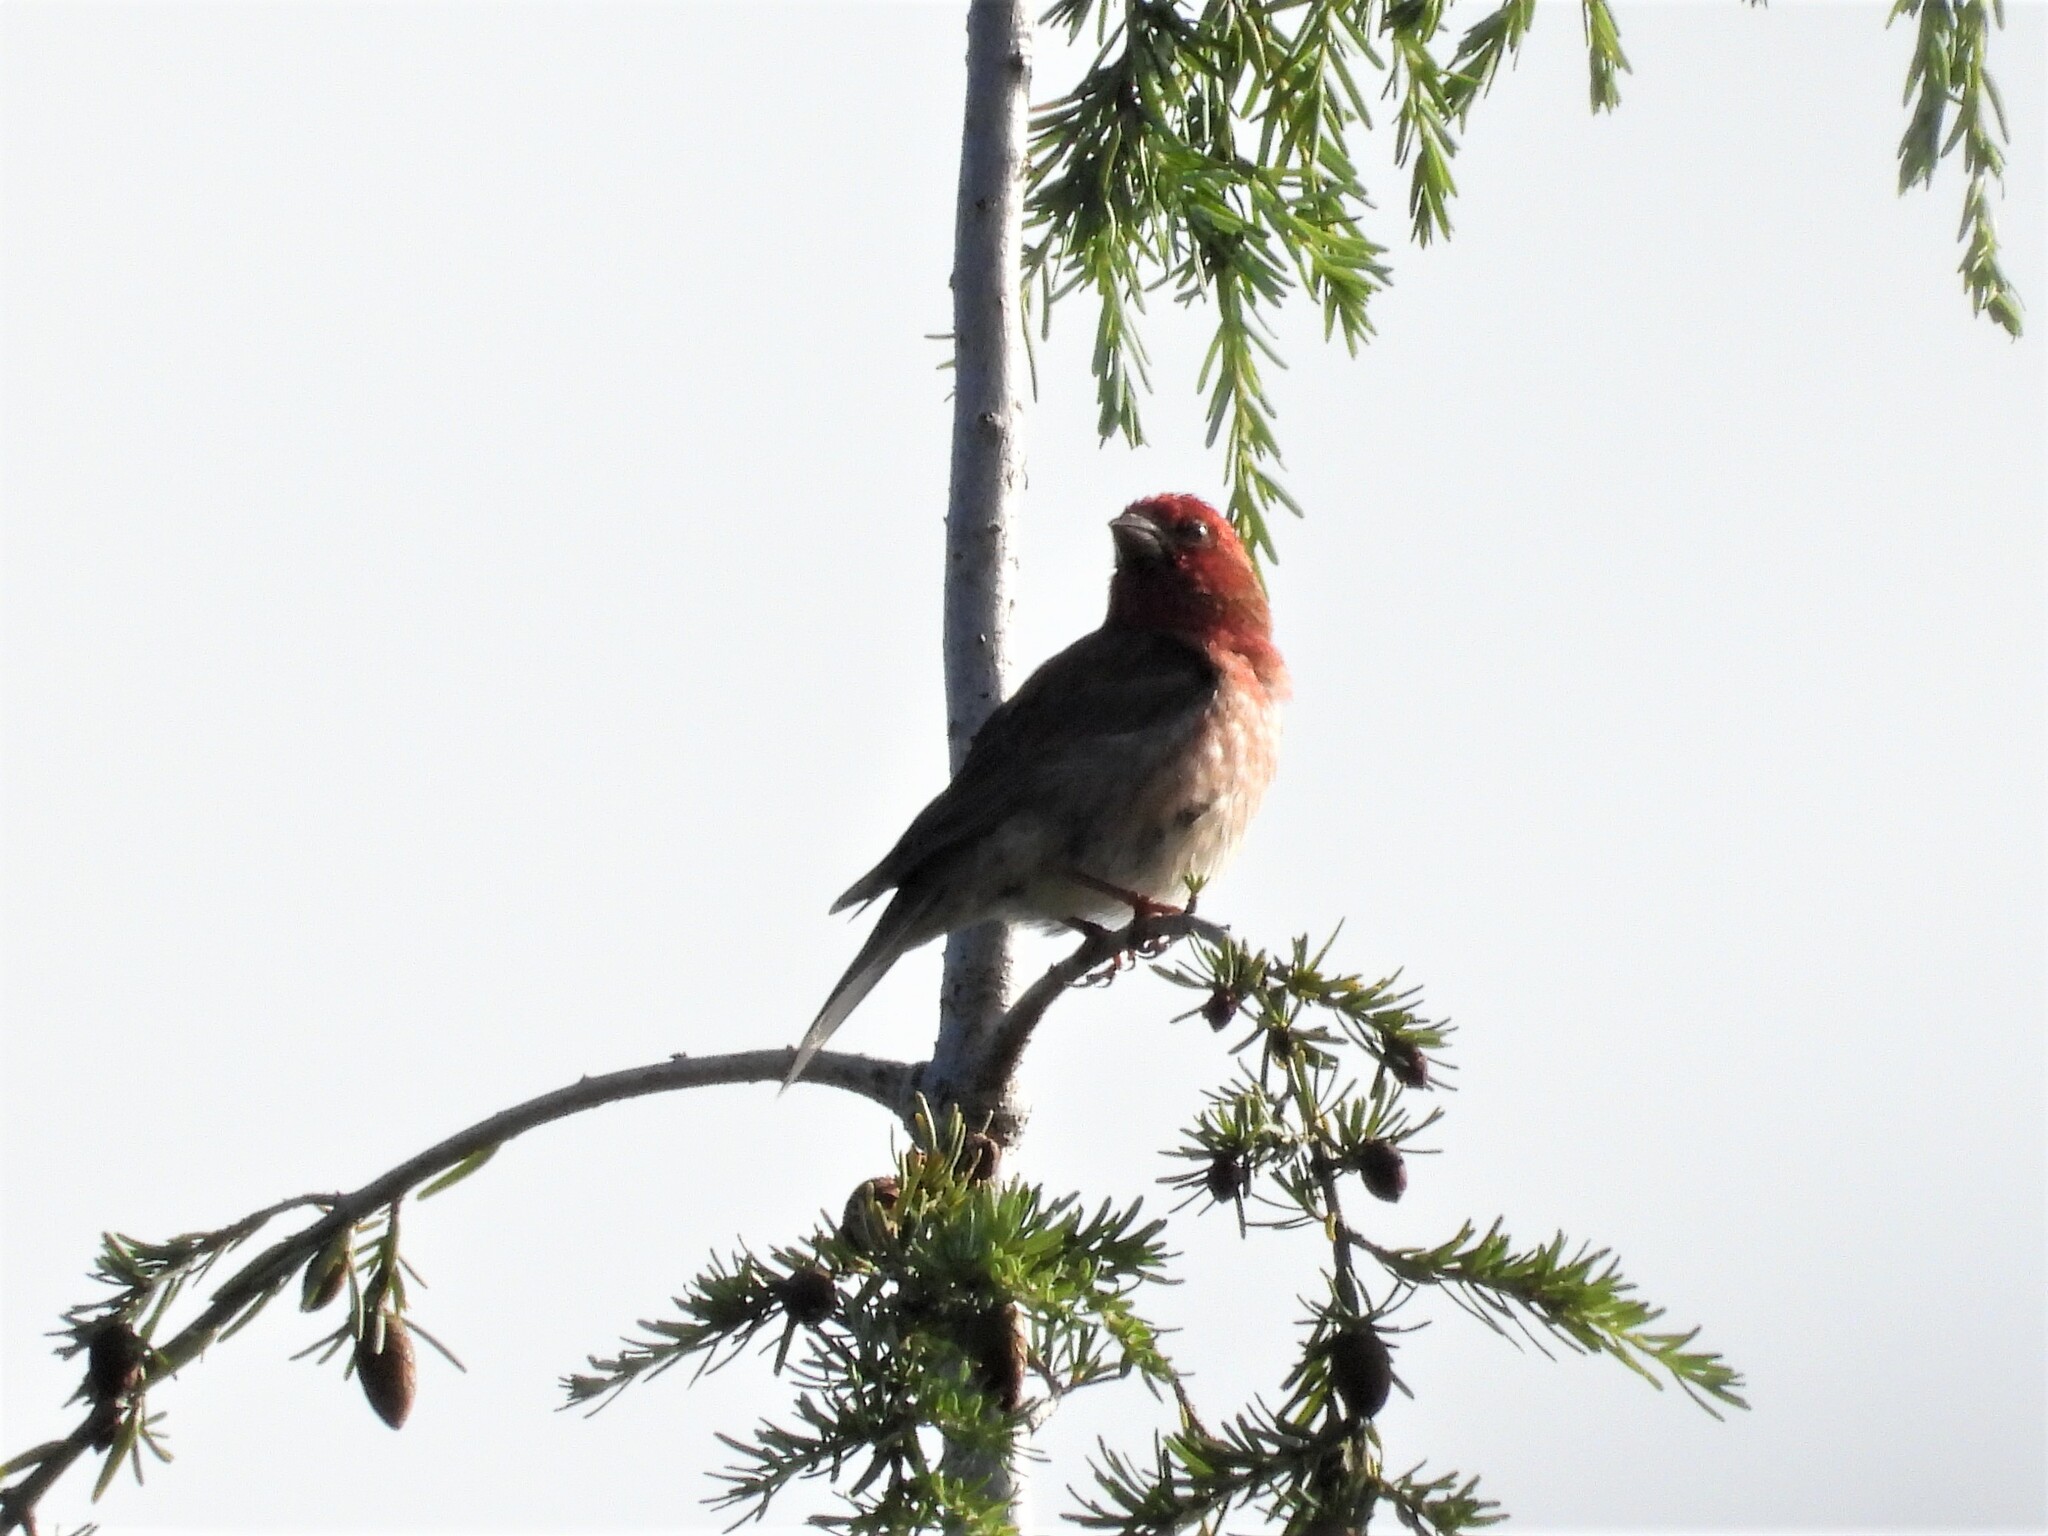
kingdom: Animalia
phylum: Chordata
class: Aves
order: Passeriformes
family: Fringillidae
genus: Haemorhous
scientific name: Haemorhous purpureus
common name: Purple finch
